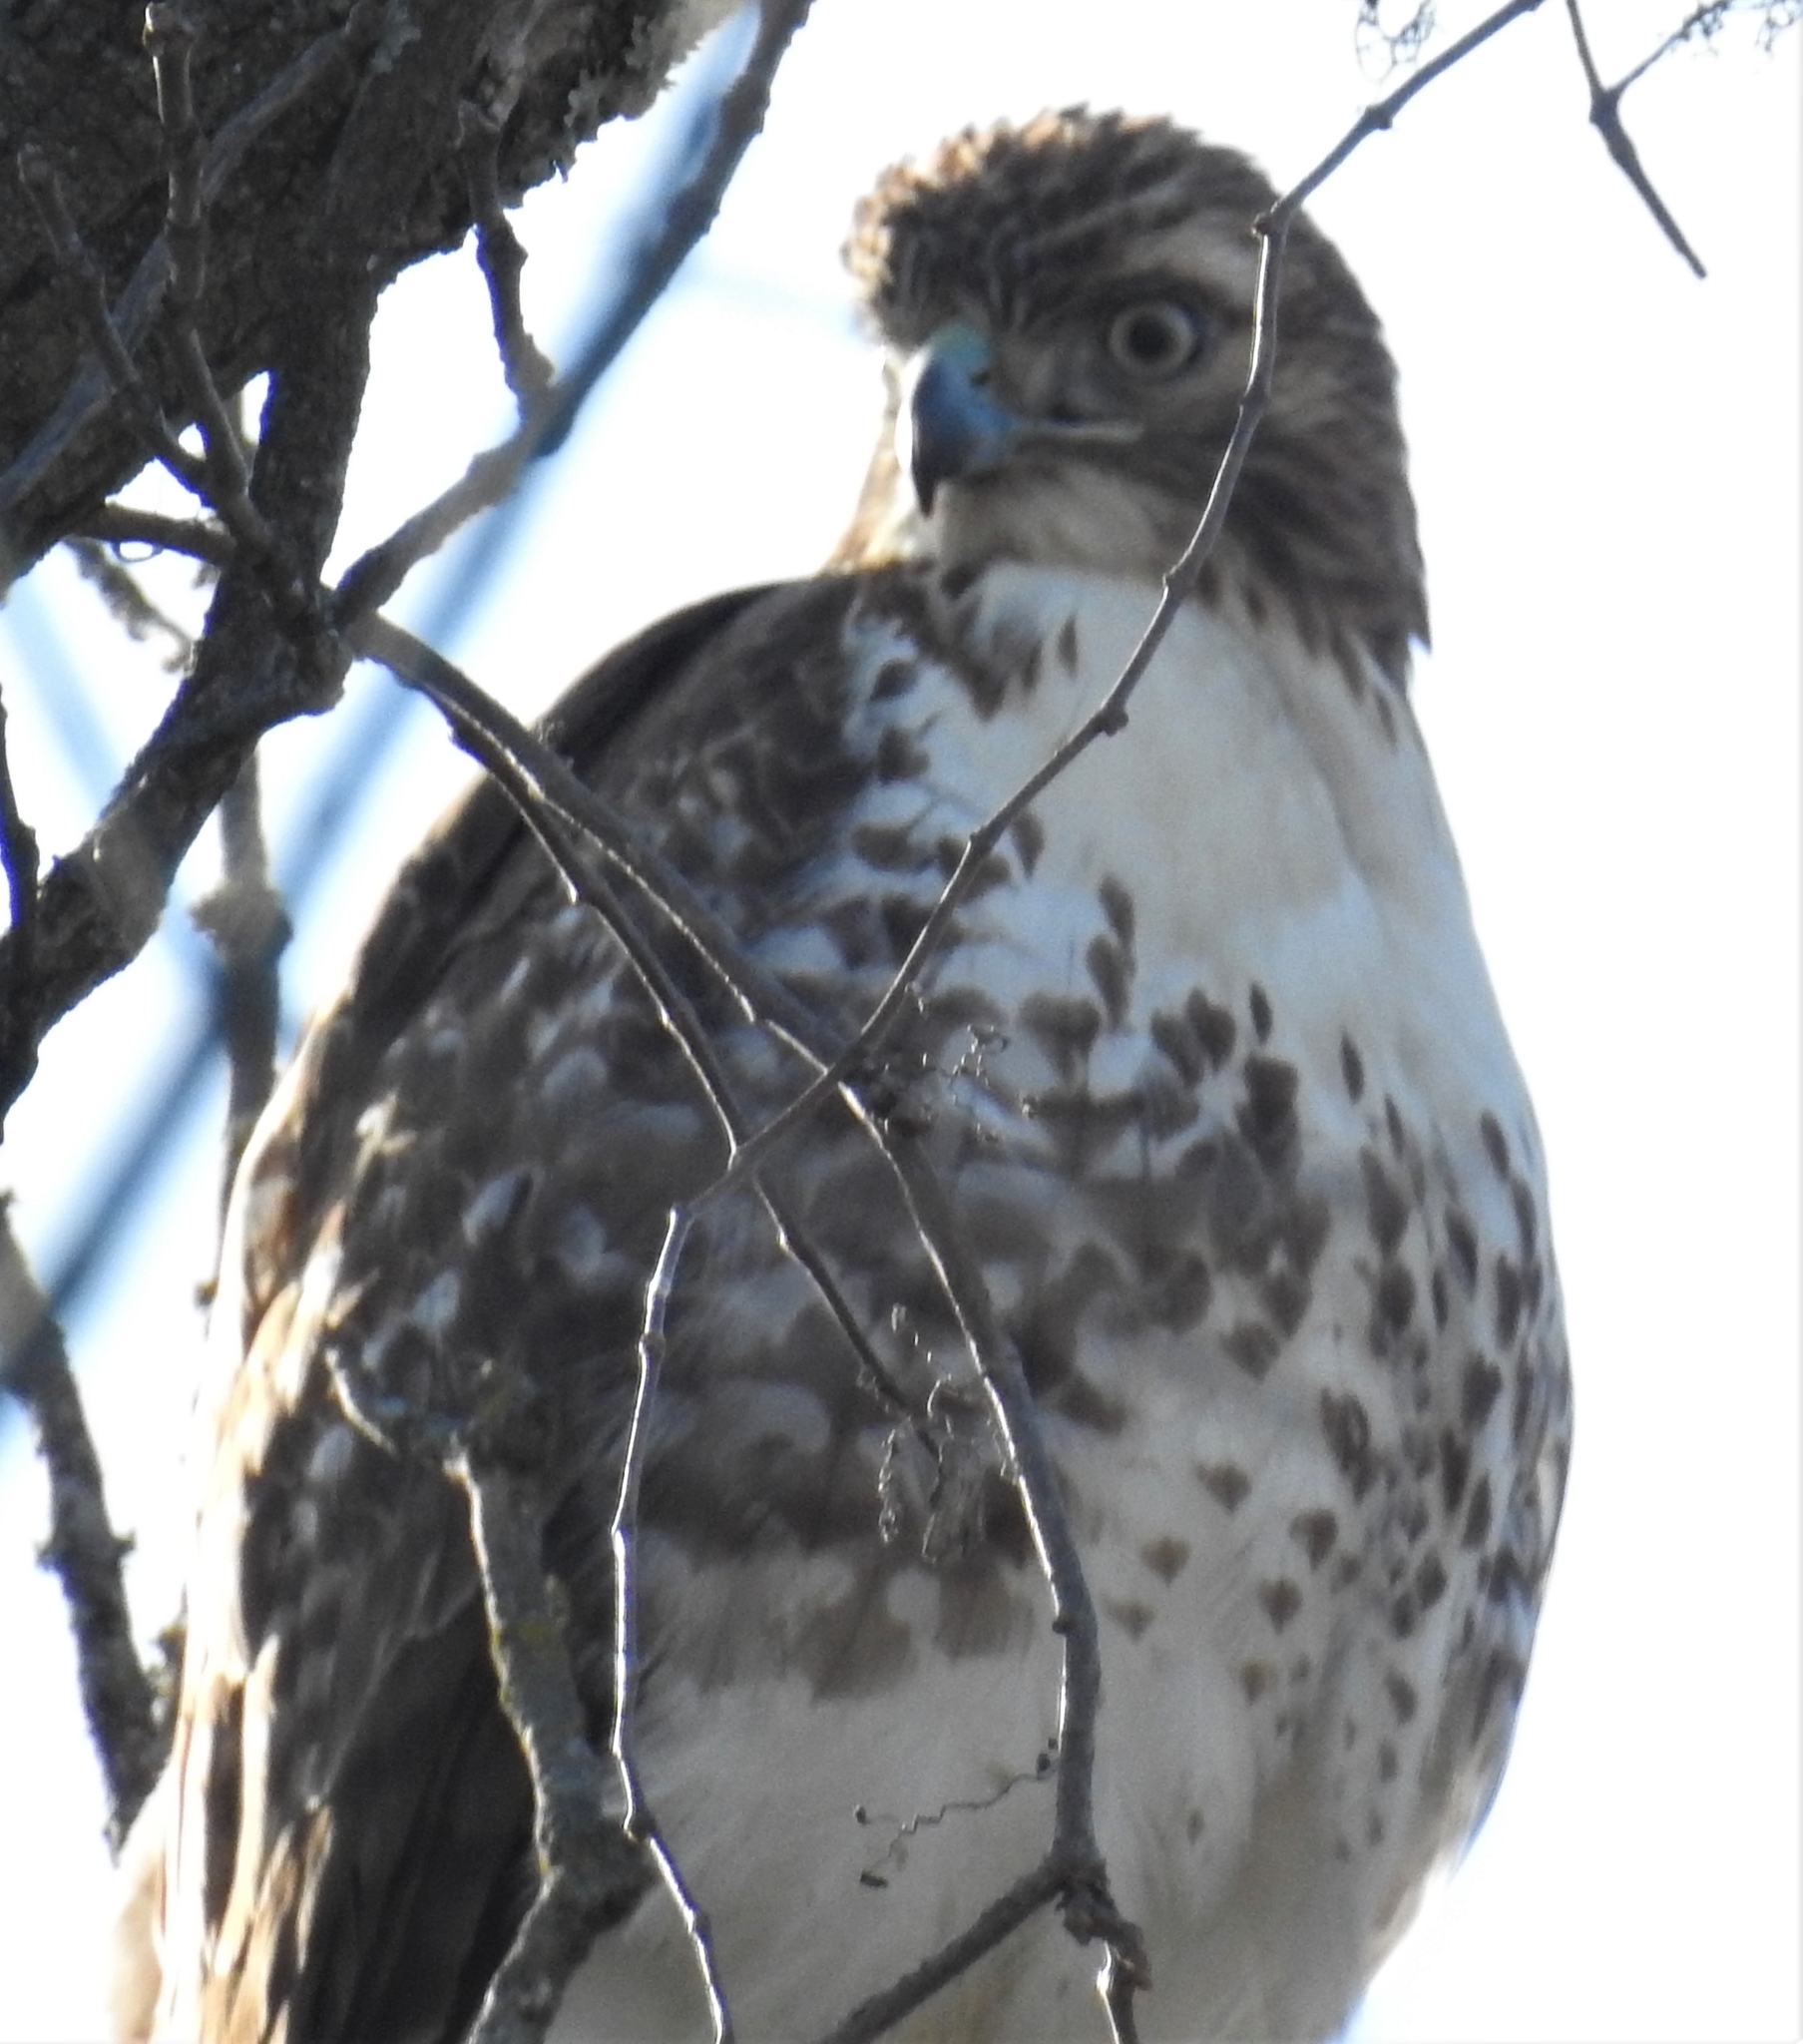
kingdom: Animalia
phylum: Chordata
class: Aves
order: Accipitriformes
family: Accipitridae
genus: Buteo
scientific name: Buteo jamaicensis
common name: Red-tailed hawk
